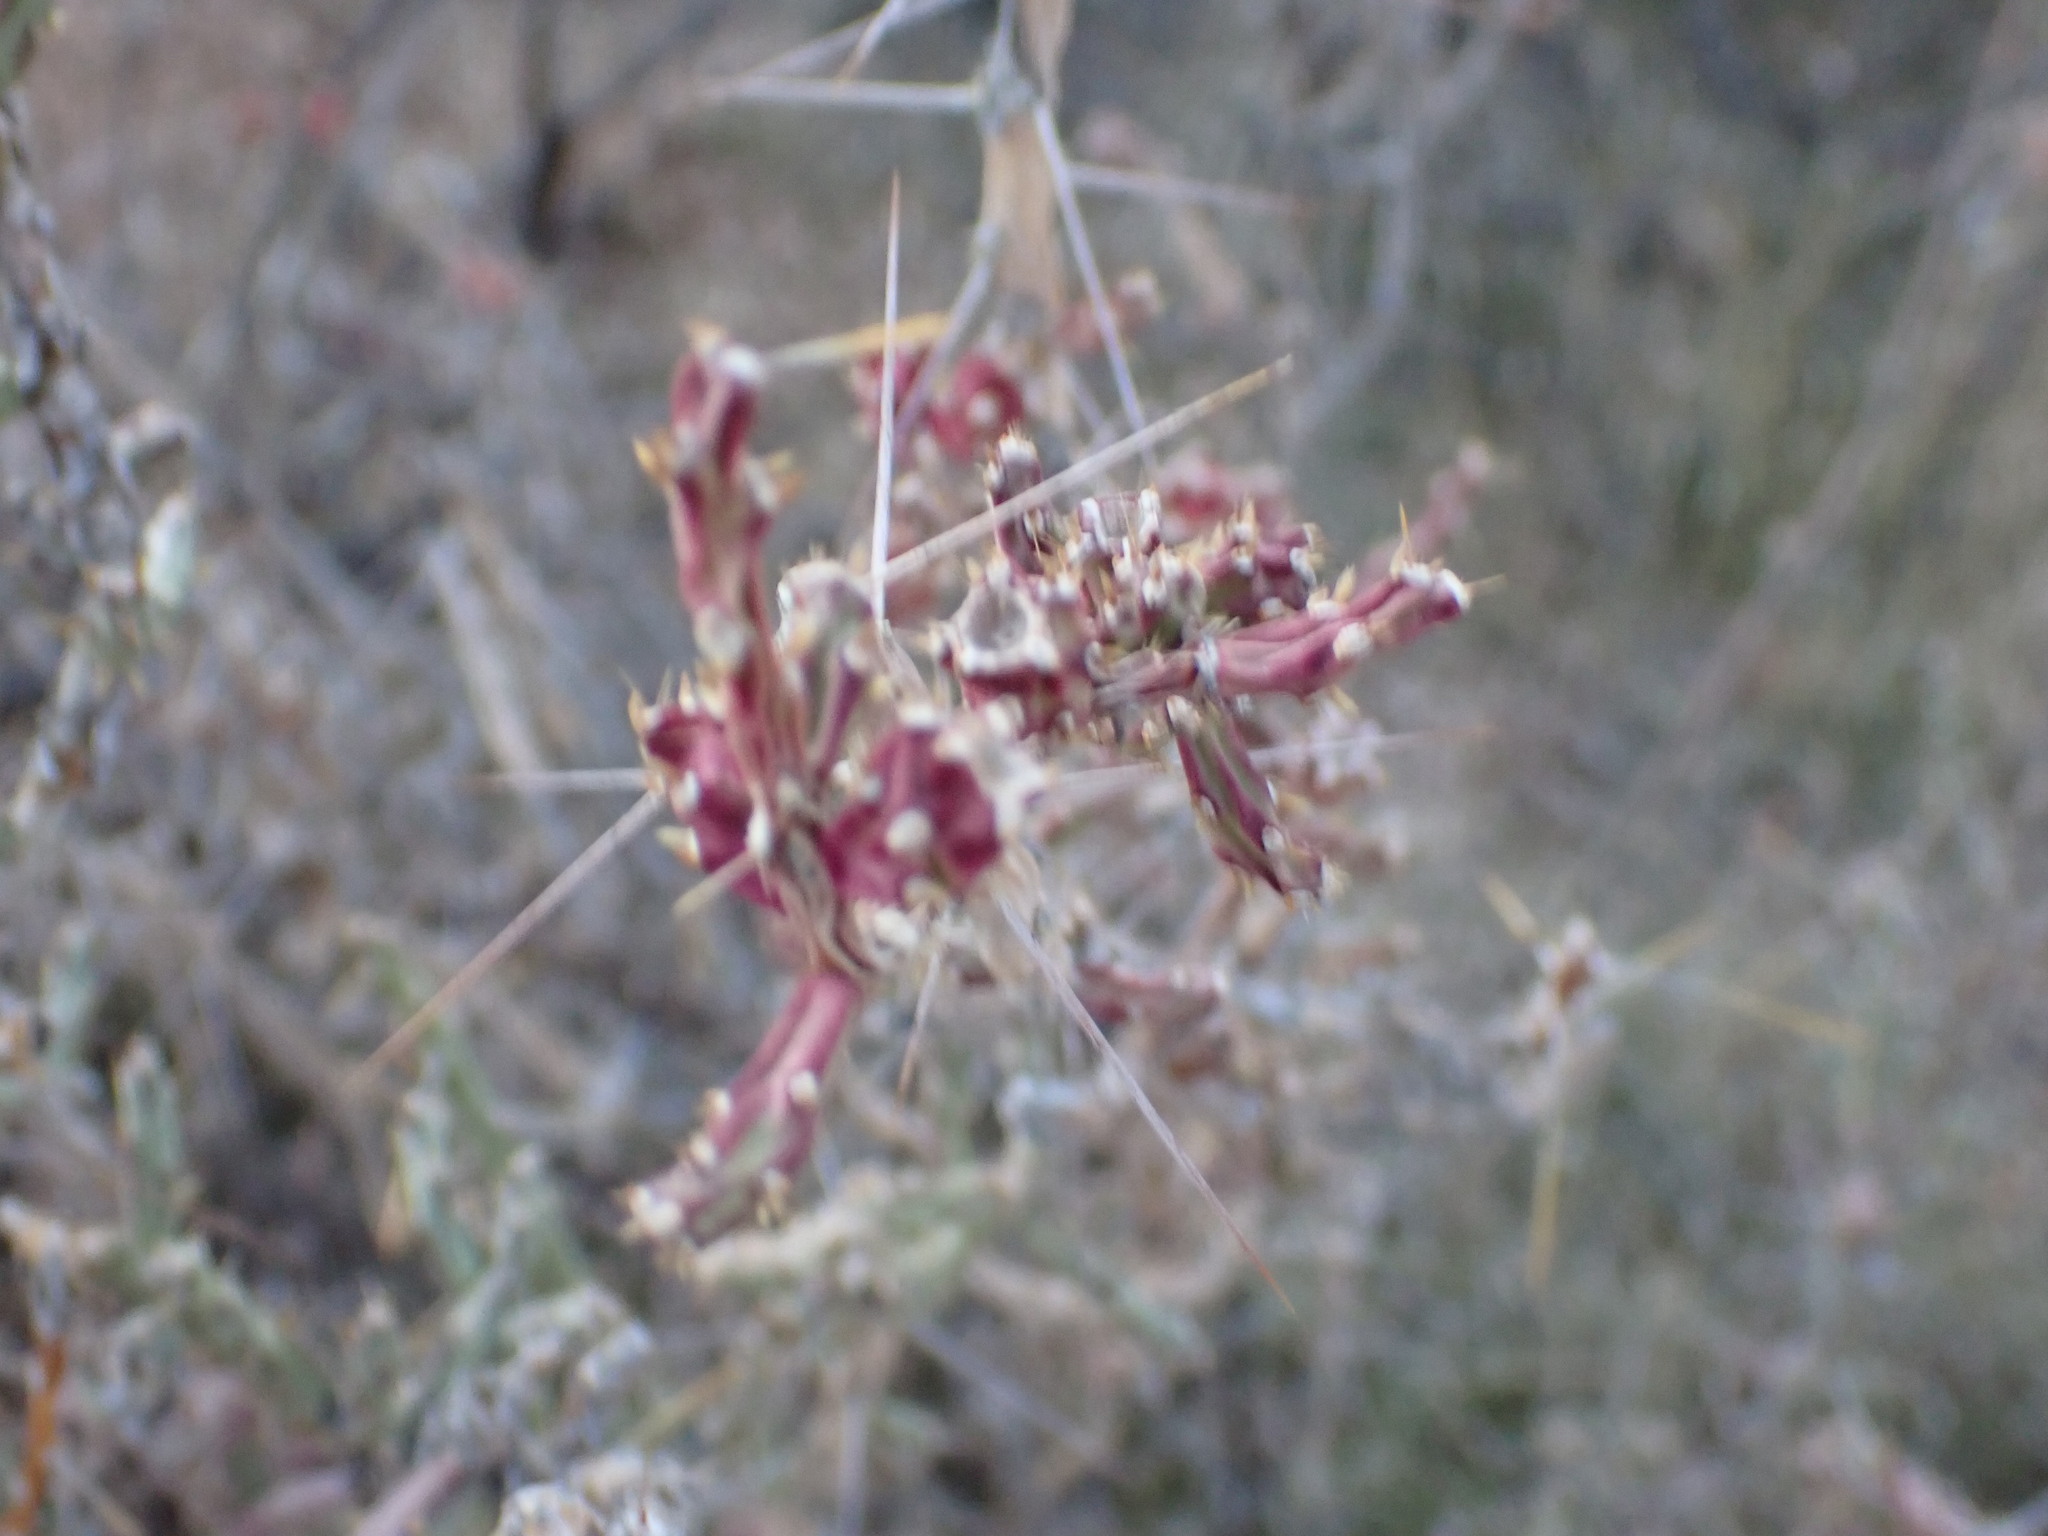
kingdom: Plantae
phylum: Tracheophyta
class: Magnoliopsida
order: Caryophyllales
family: Cactaceae
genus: Cylindropuntia
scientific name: Cylindropuntia leptocaulis
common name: Christmas cactus
